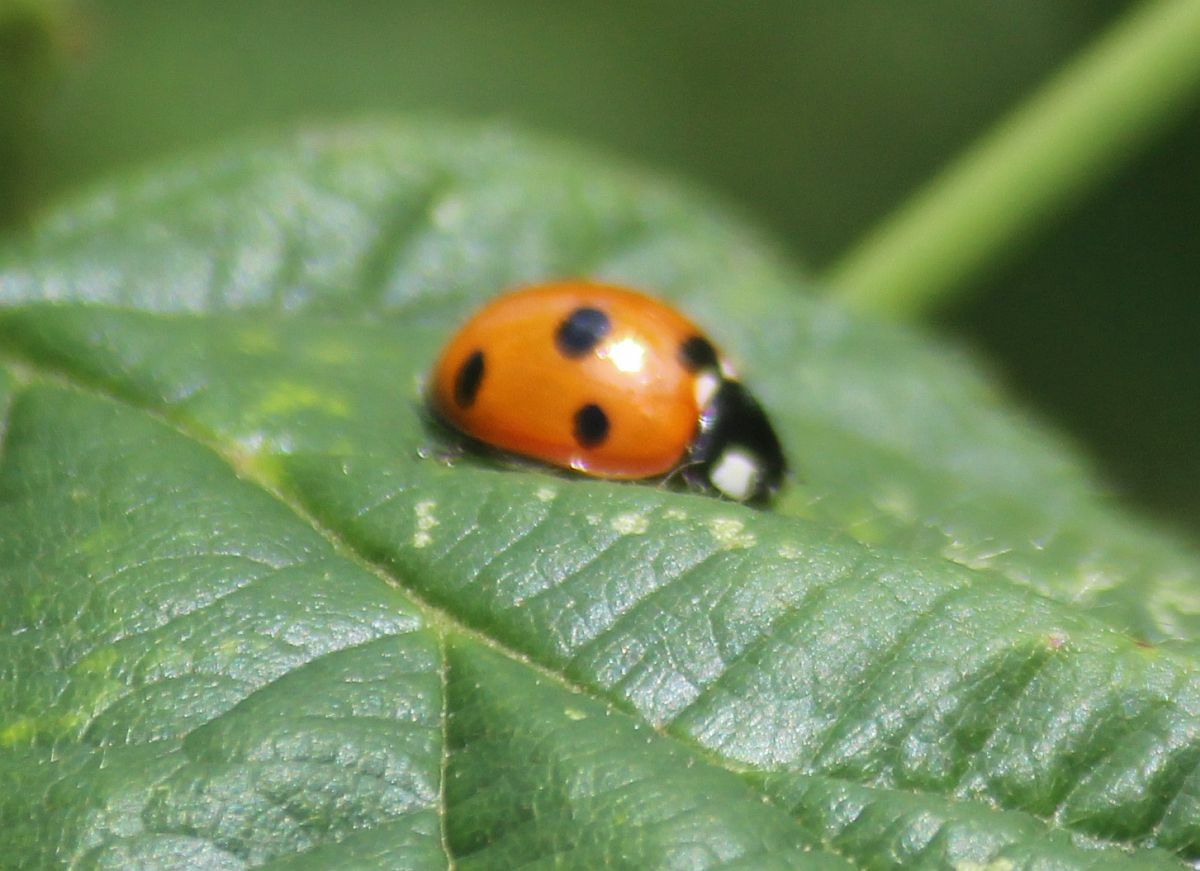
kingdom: Animalia
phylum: Arthropoda
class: Insecta
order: Coleoptera
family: Coccinellidae
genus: Coccinella
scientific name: Coccinella septempunctata
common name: Sevenspotted lady beetle
